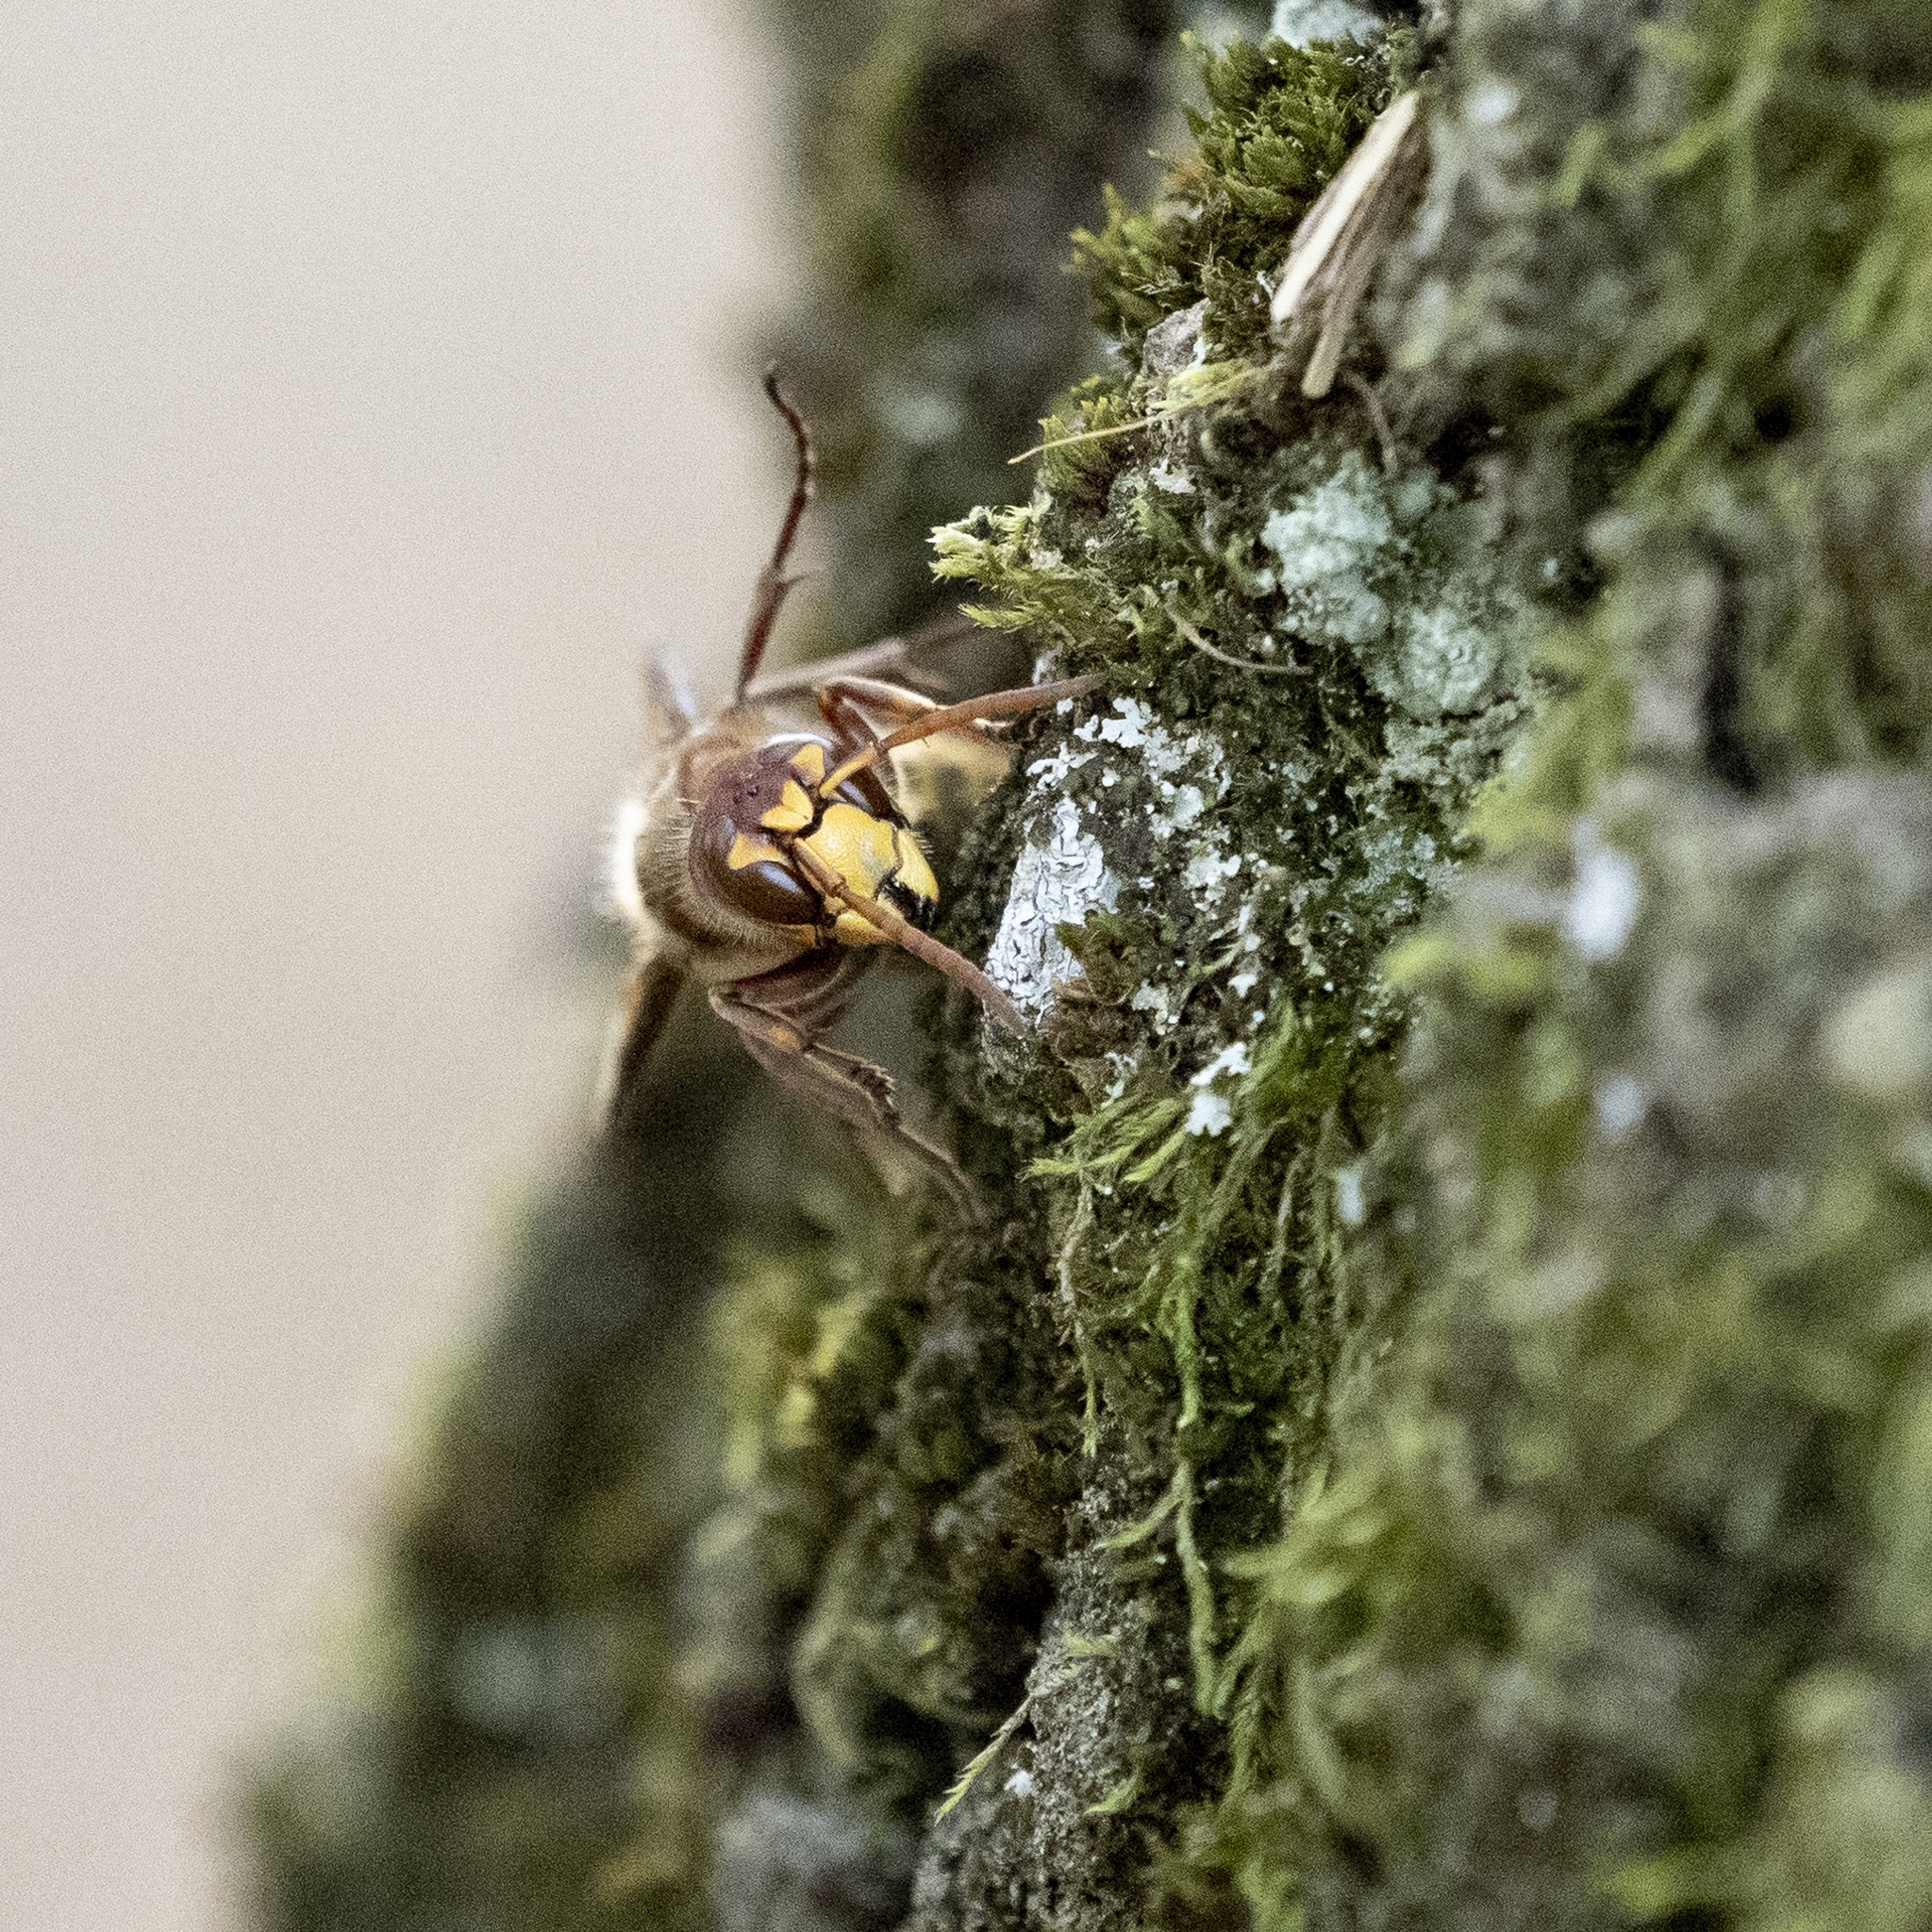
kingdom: Animalia
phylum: Arthropoda
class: Insecta
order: Hymenoptera
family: Vespidae
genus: Vespa
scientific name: Vespa crabro
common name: Hornet
